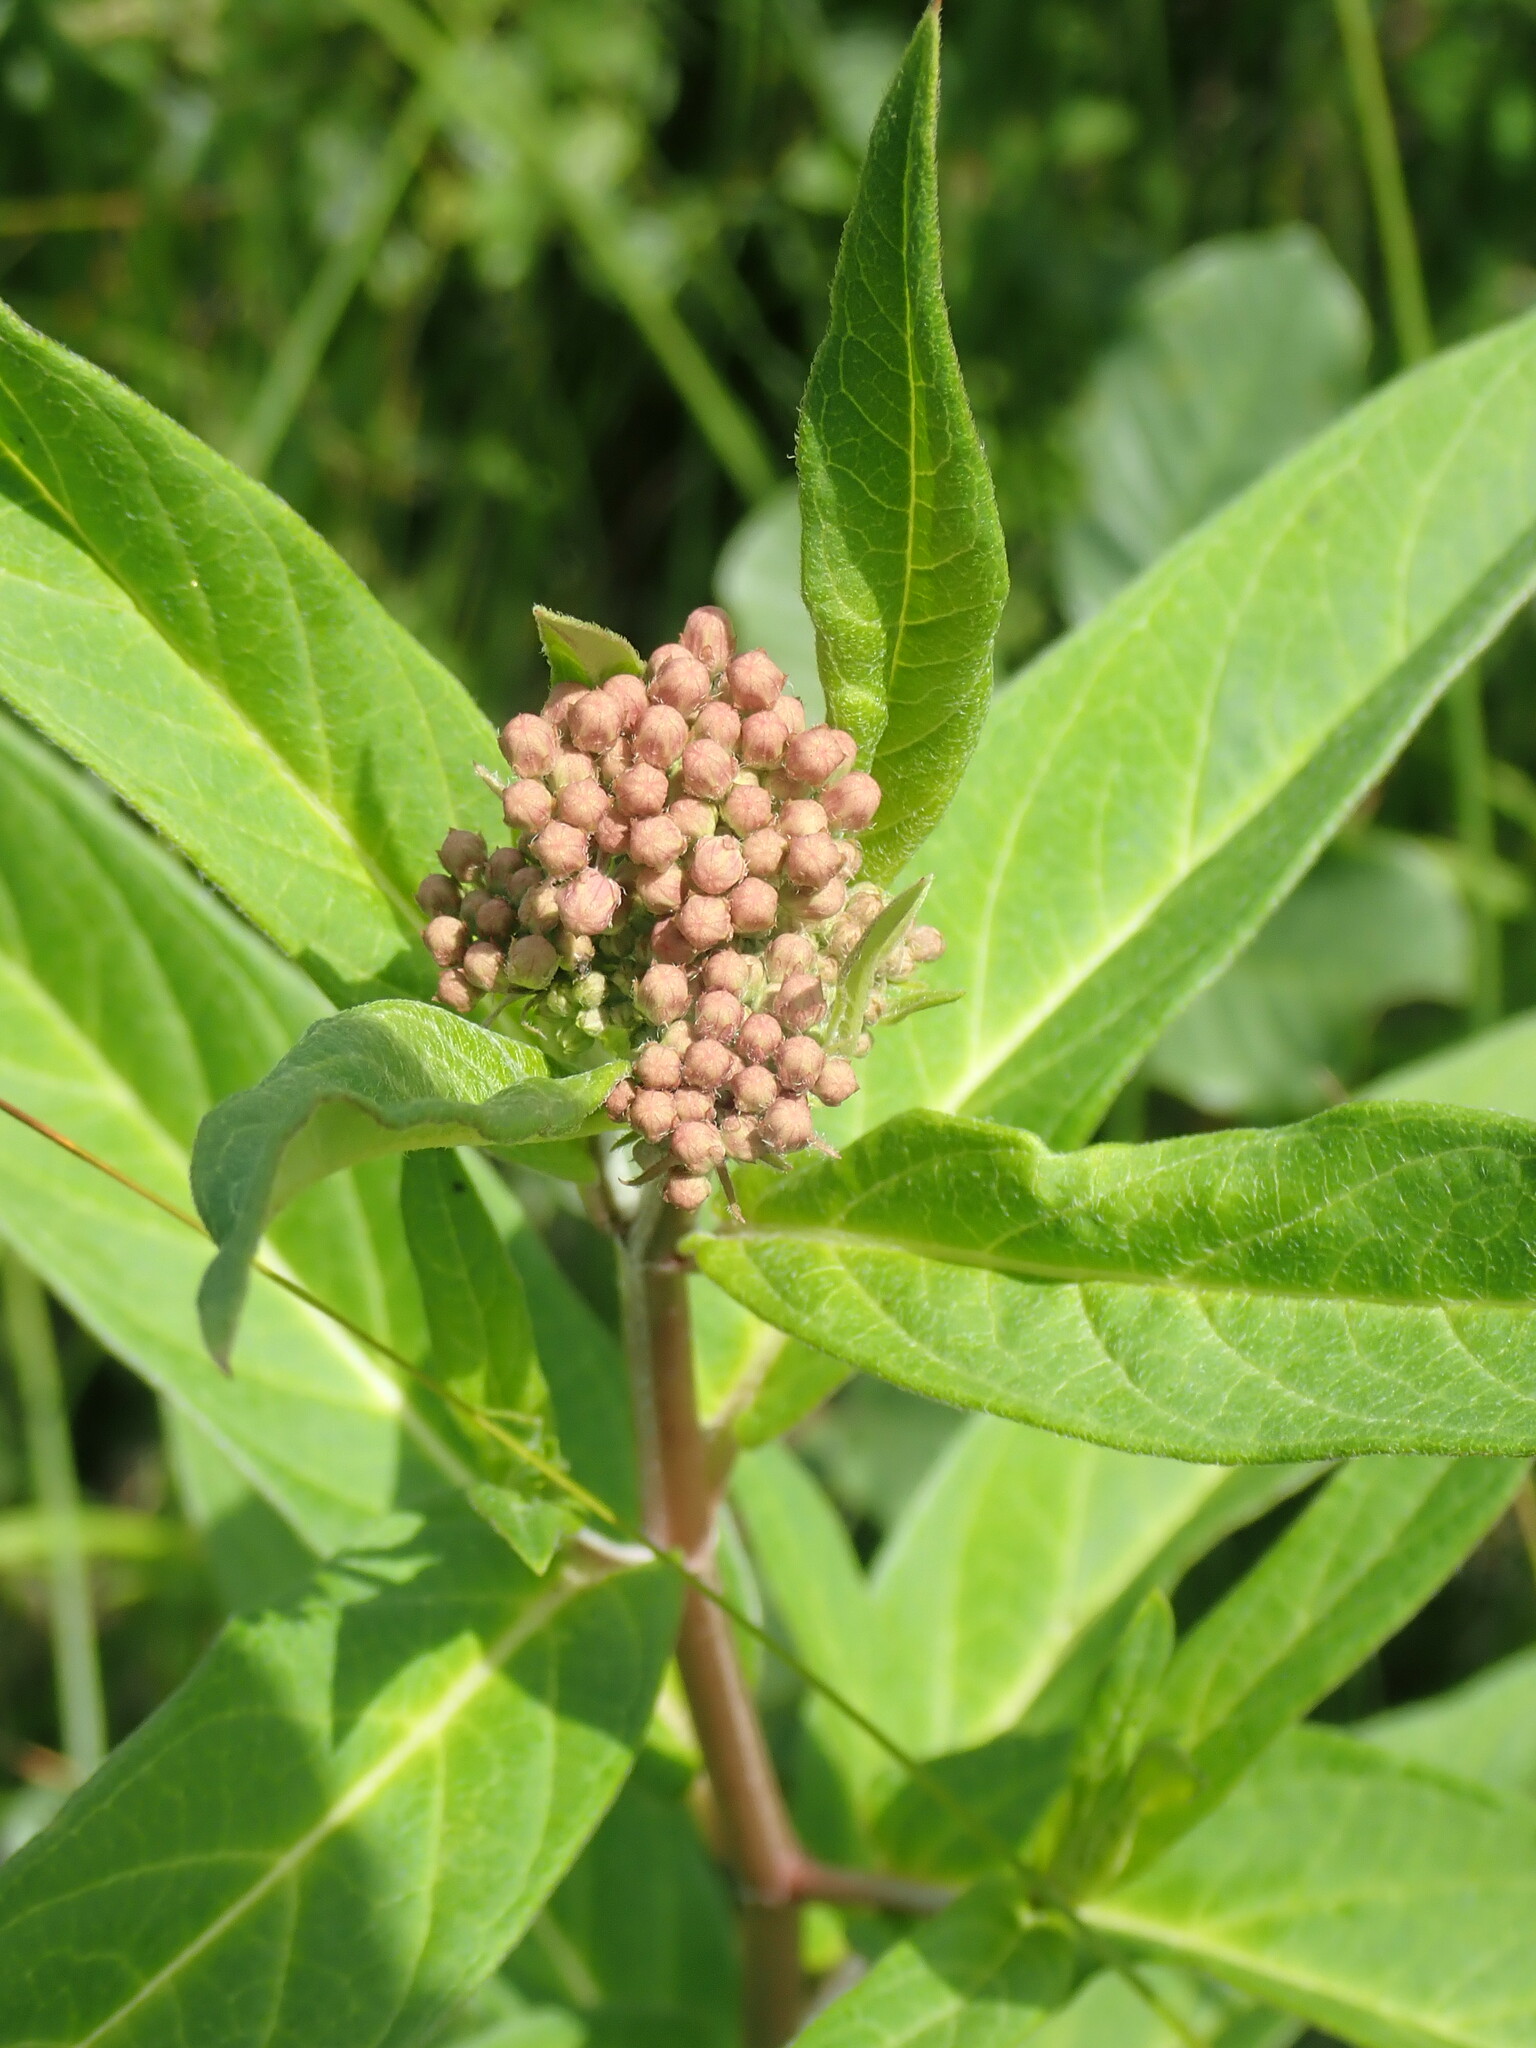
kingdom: Plantae
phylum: Tracheophyta
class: Magnoliopsida
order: Gentianales
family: Apocynaceae
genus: Asclepias
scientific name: Asclepias incarnata
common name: Swamp milkweed
